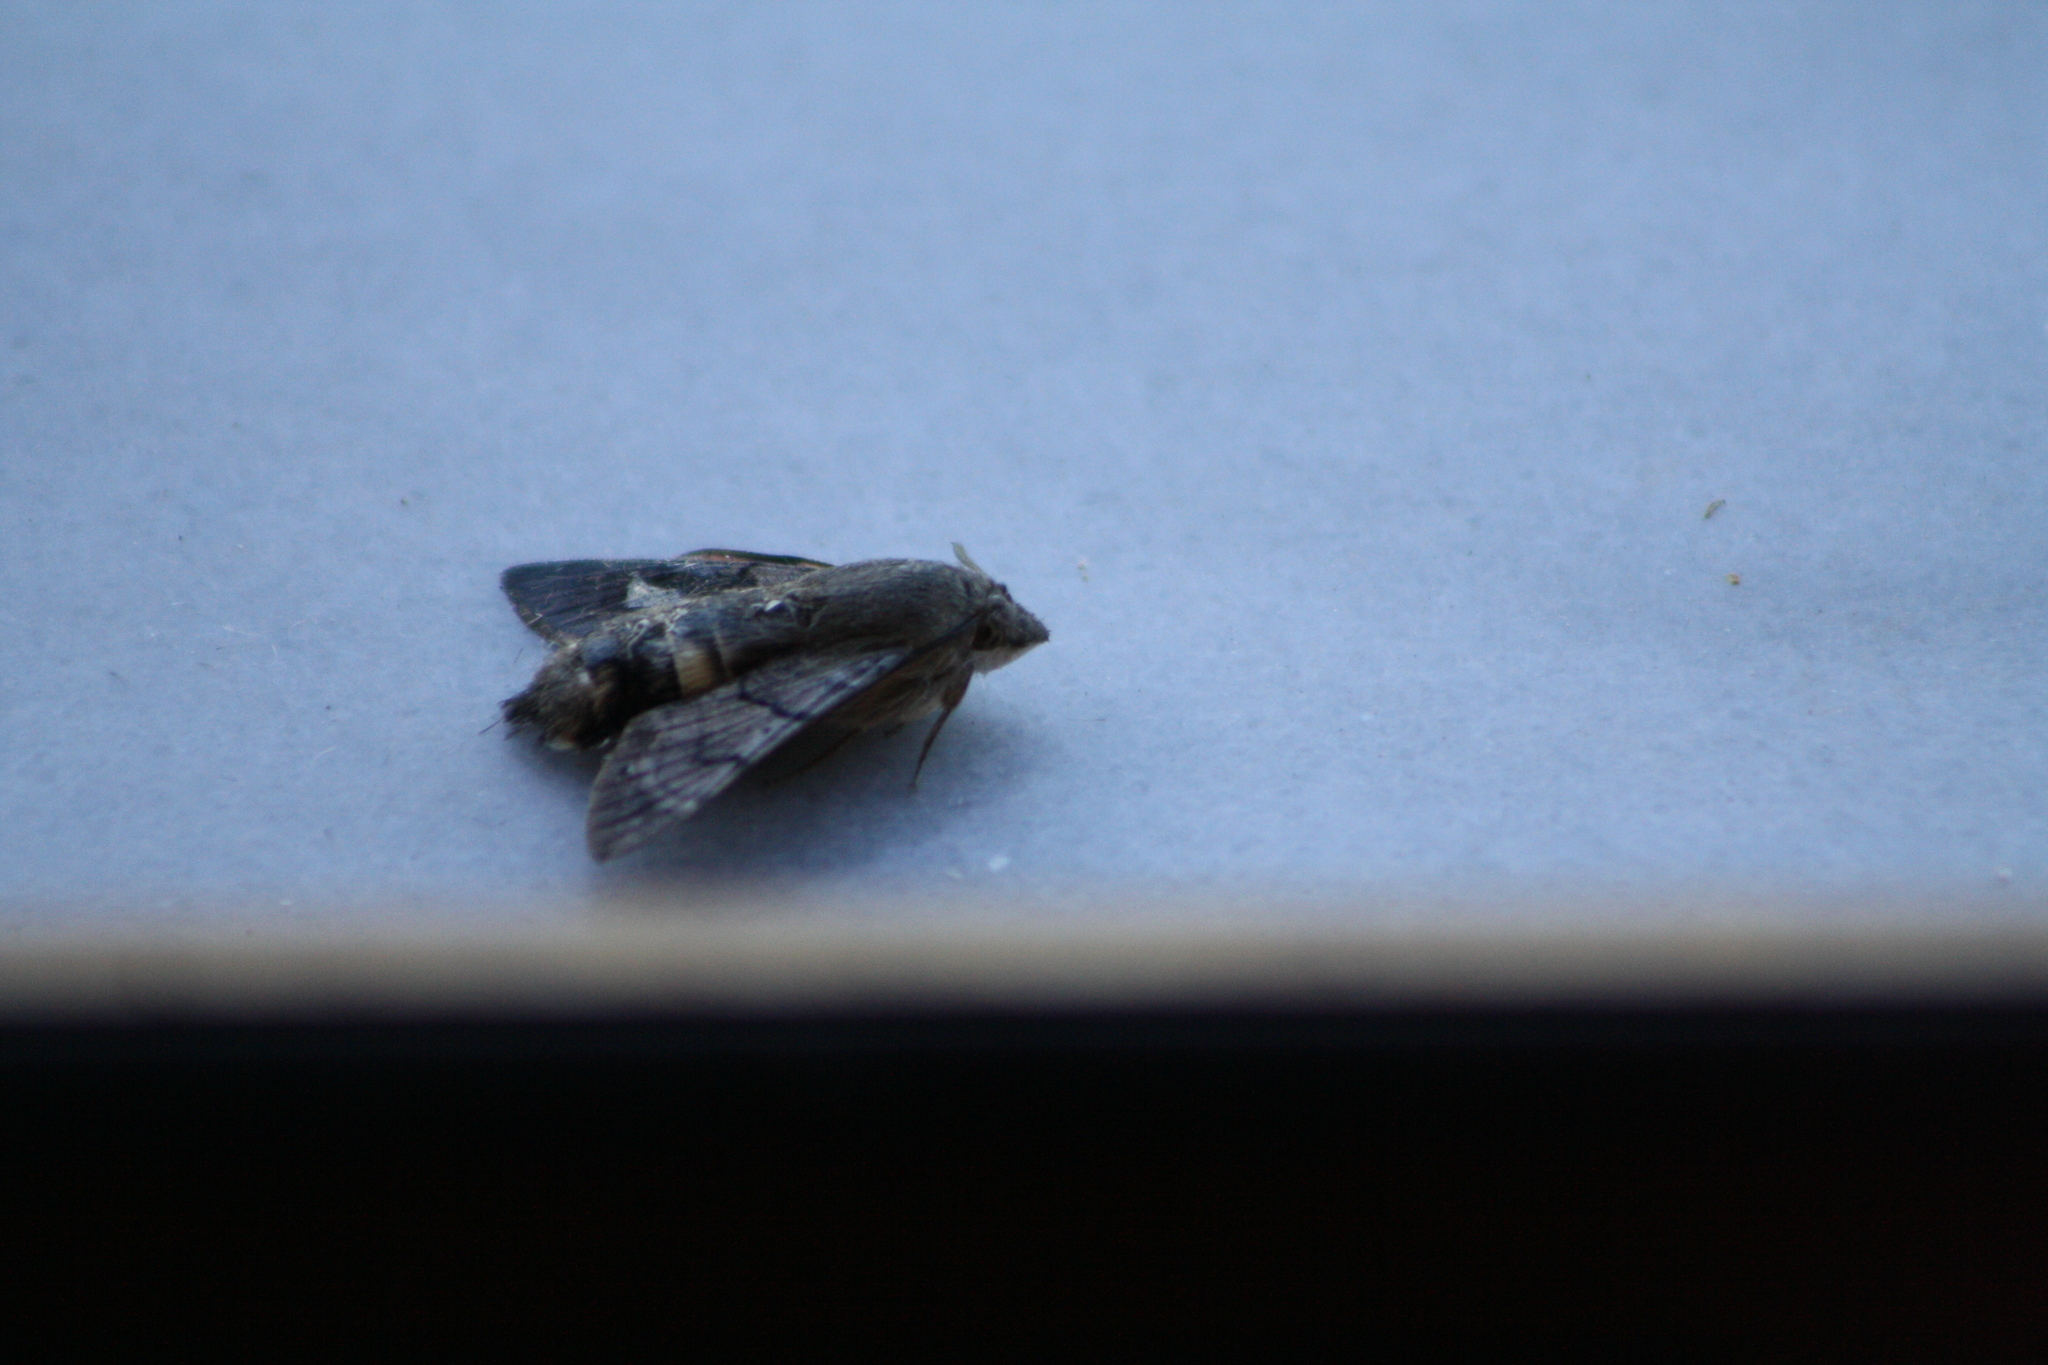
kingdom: Animalia
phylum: Arthropoda
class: Insecta
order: Lepidoptera
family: Sphingidae
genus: Macroglossum
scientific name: Macroglossum stellatarum
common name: Humming-bird hawk-moth
